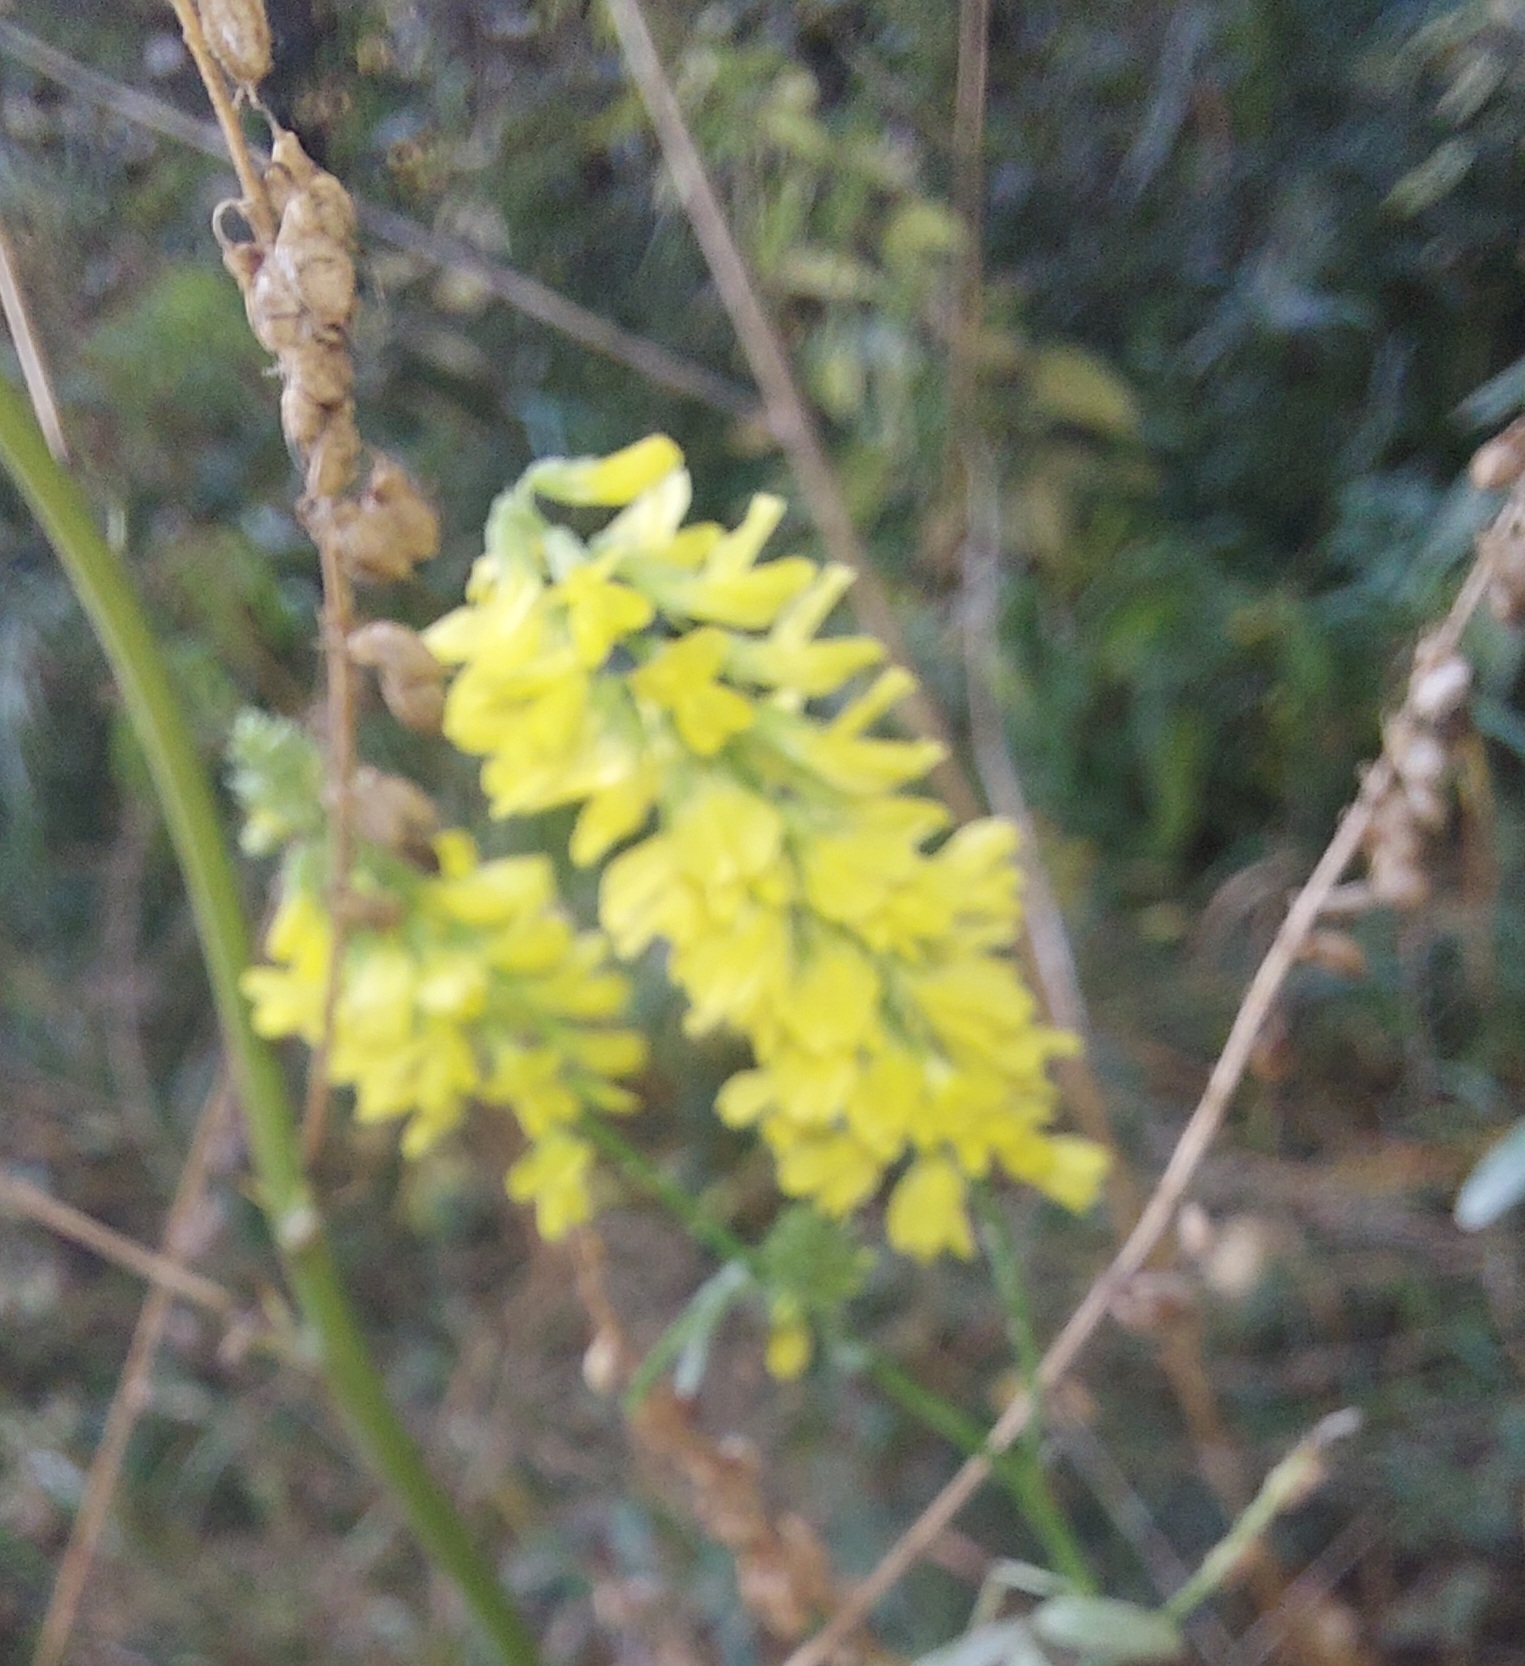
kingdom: Plantae
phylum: Tracheophyta
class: Magnoliopsida
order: Fabales
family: Fabaceae
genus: Melilotus
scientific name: Melilotus officinalis
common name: Sweetclover
